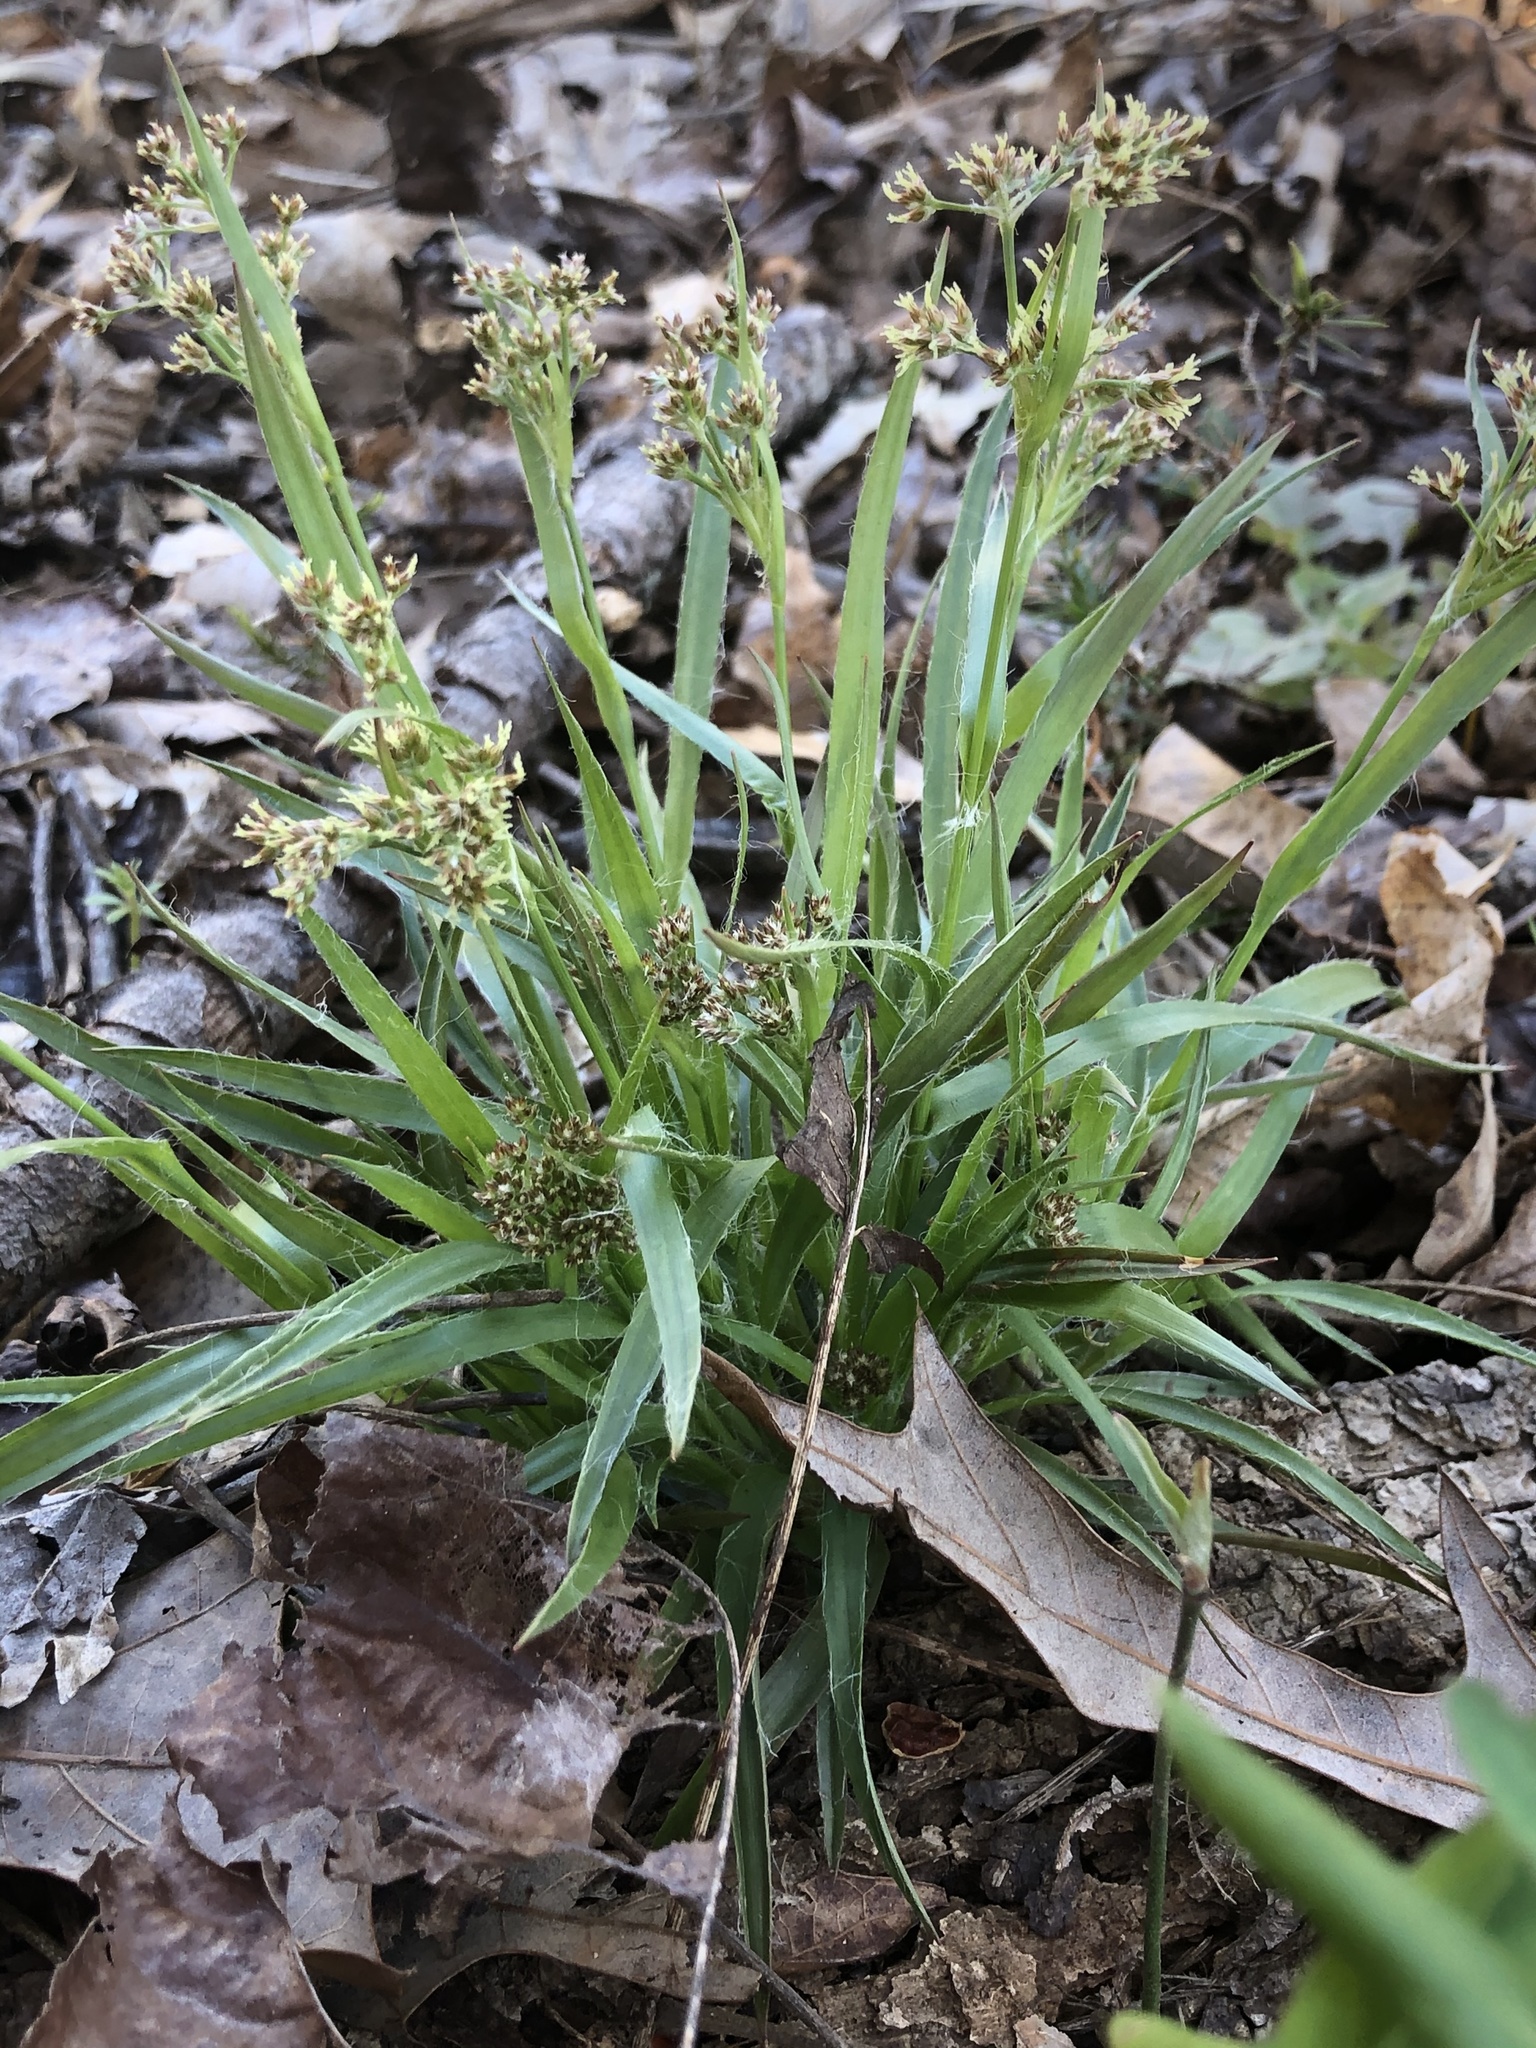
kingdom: Plantae
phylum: Tracheophyta
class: Liliopsida
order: Poales
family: Juncaceae
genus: Luzula
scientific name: Luzula echinata
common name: Hedgehog woodrush
